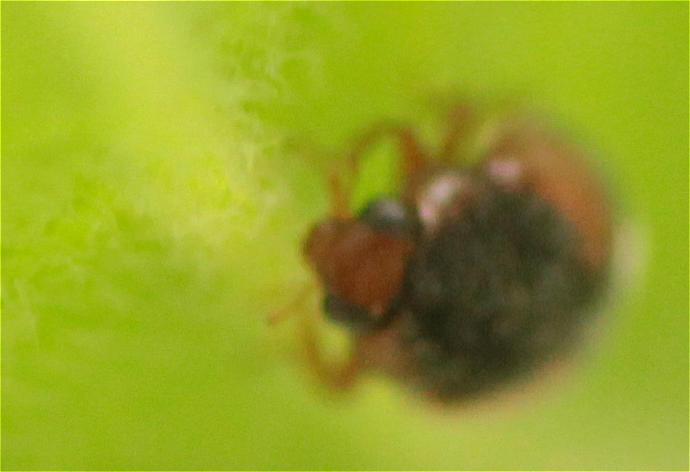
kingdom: Animalia
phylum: Arthropoda
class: Insecta
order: Coleoptera
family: Coccinellidae
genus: Scymnus
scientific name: Scymnus interruptus
